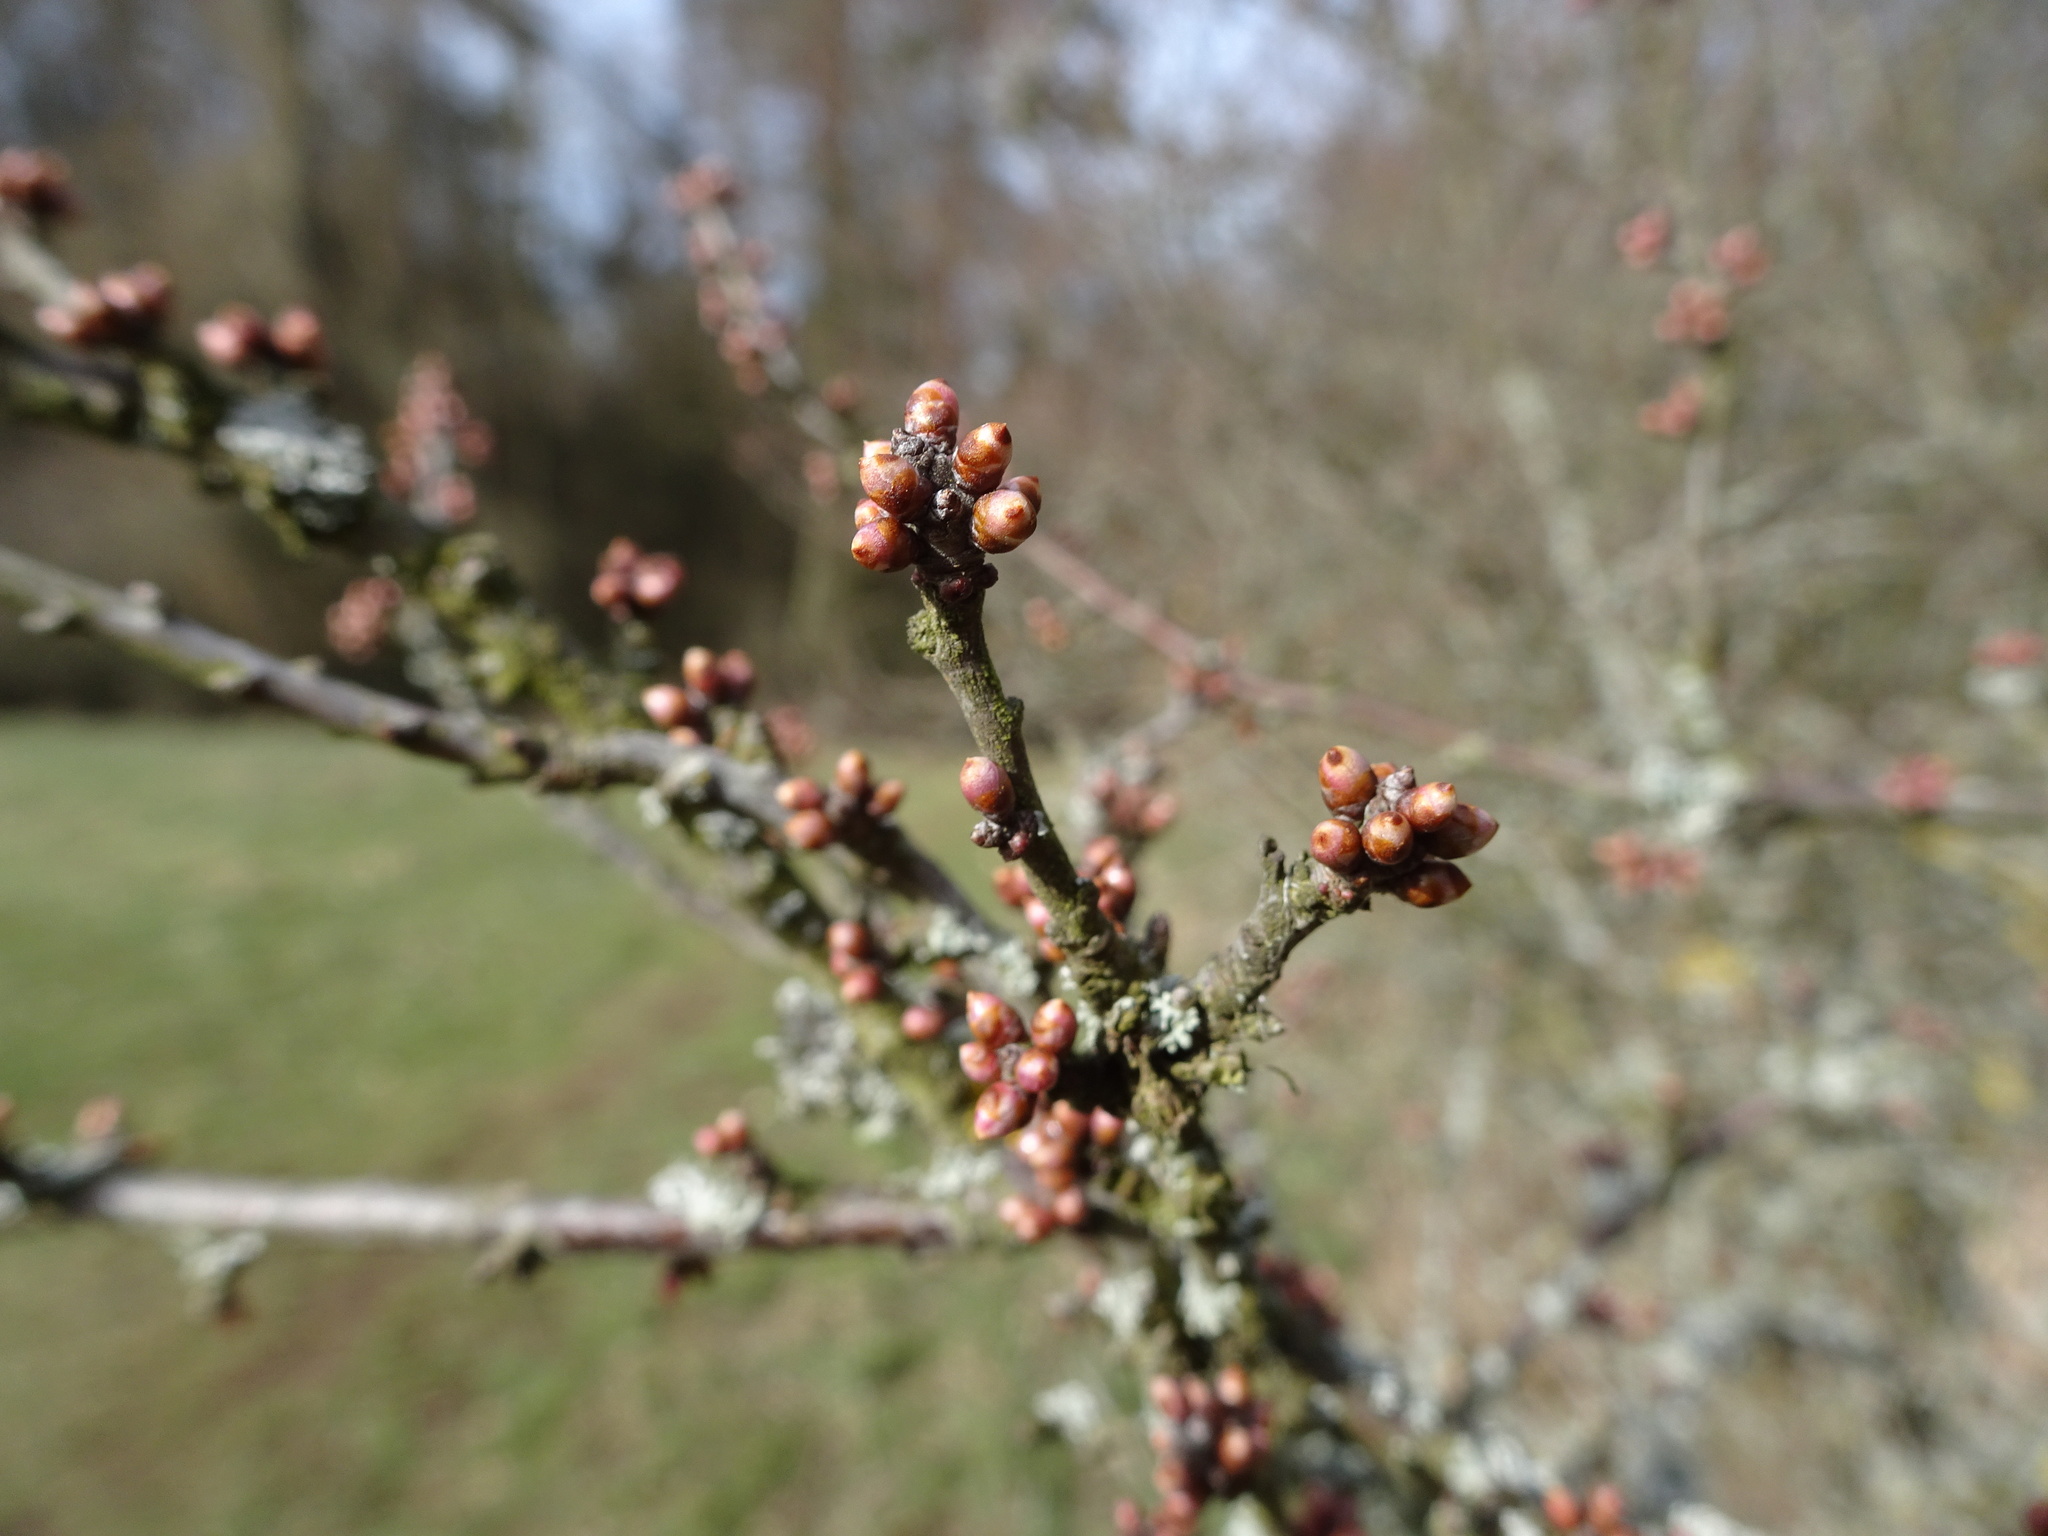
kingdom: Plantae
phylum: Tracheophyta
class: Magnoliopsida
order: Rosales
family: Rosaceae
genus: Prunus
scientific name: Prunus spinosa
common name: Blackthorn
